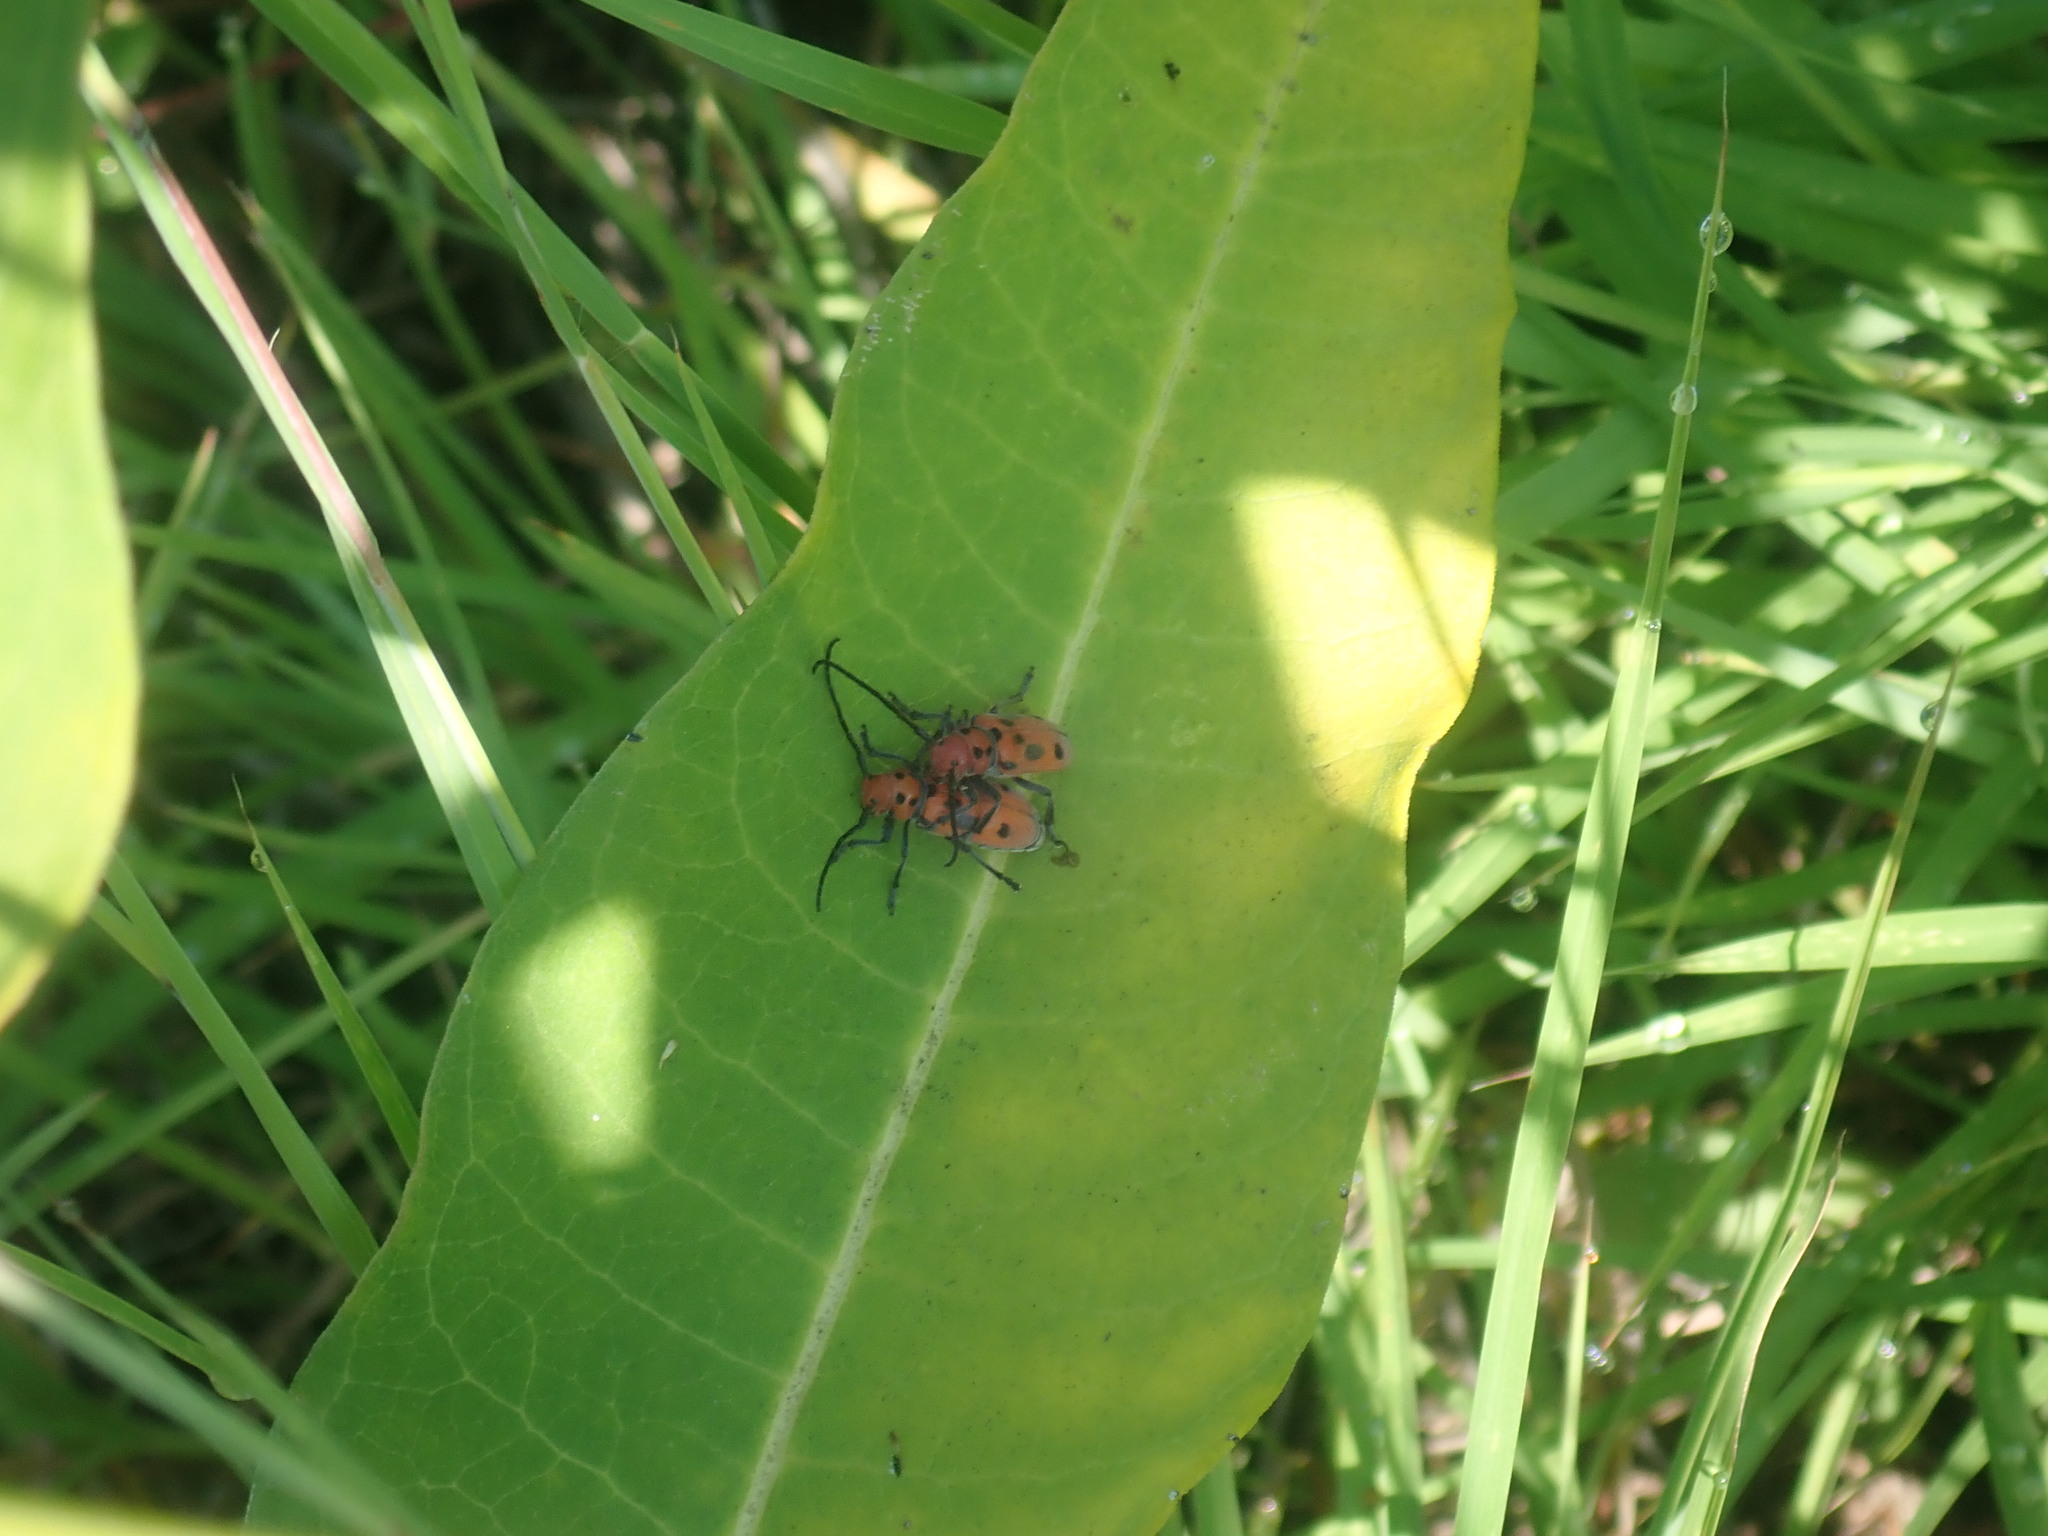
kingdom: Animalia
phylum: Arthropoda
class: Insecta
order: Coleoptera
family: Cerambycidae
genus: Tetraopes
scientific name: Tetraopes tetrophthalmus
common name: Red milkweed beetle
